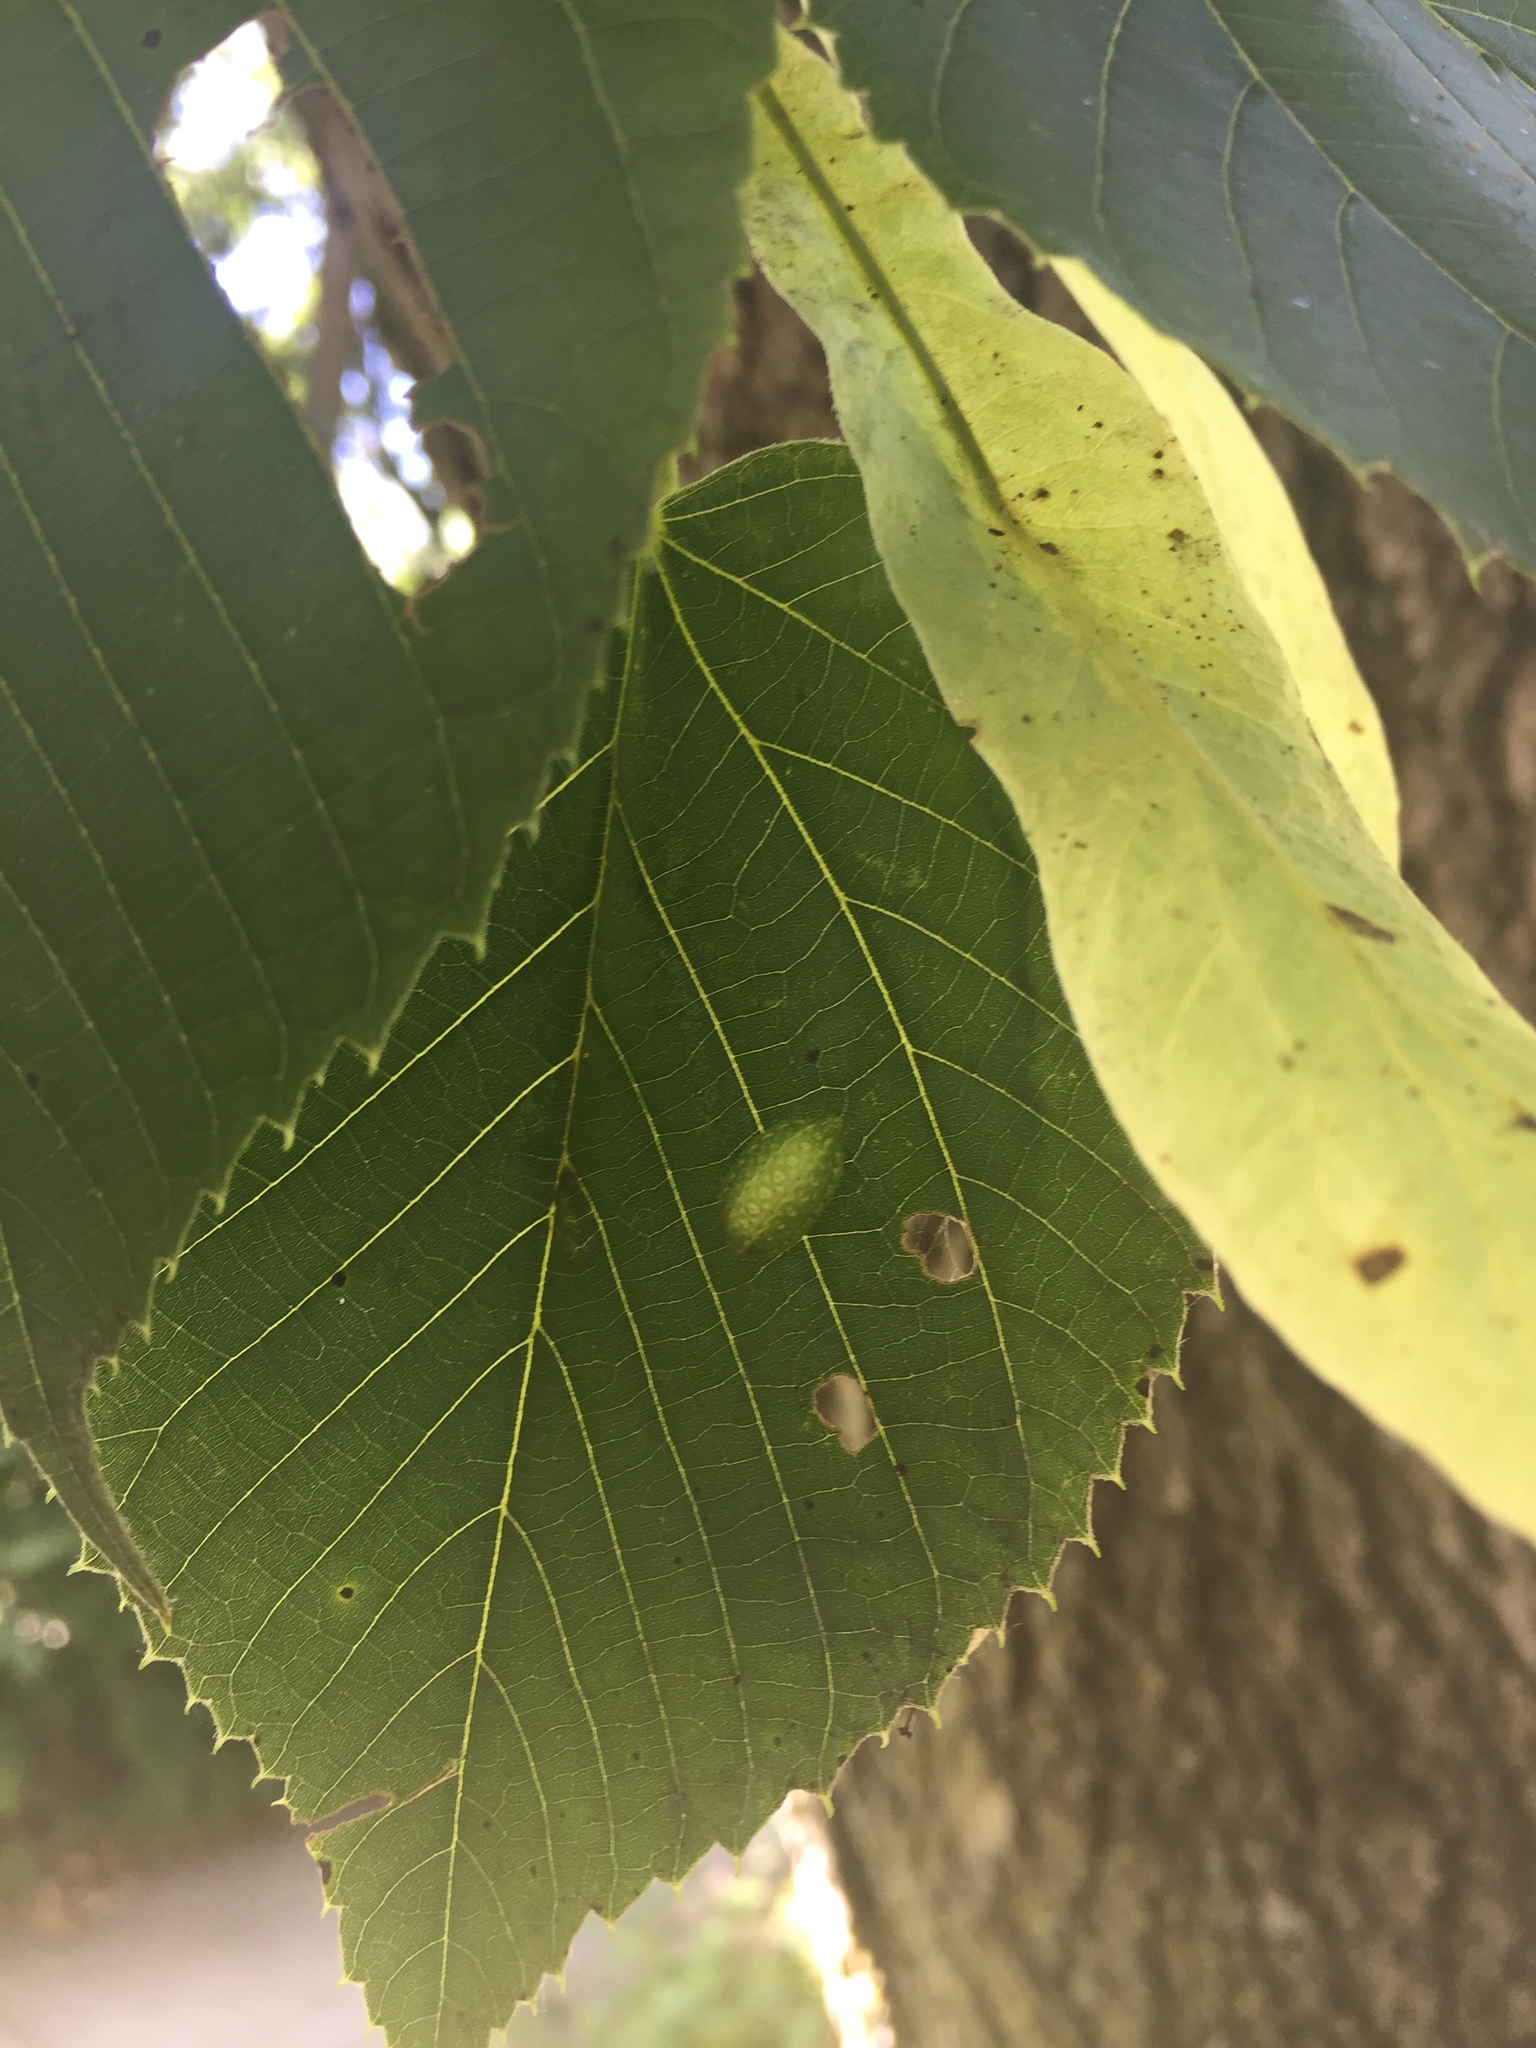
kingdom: Animalia
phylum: Arthropoda
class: Insecta
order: Lepidoptera
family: Limacodidae
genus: Lithacodes
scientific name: Lithacodes fasciola
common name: Yellow-shouldered slug moth
